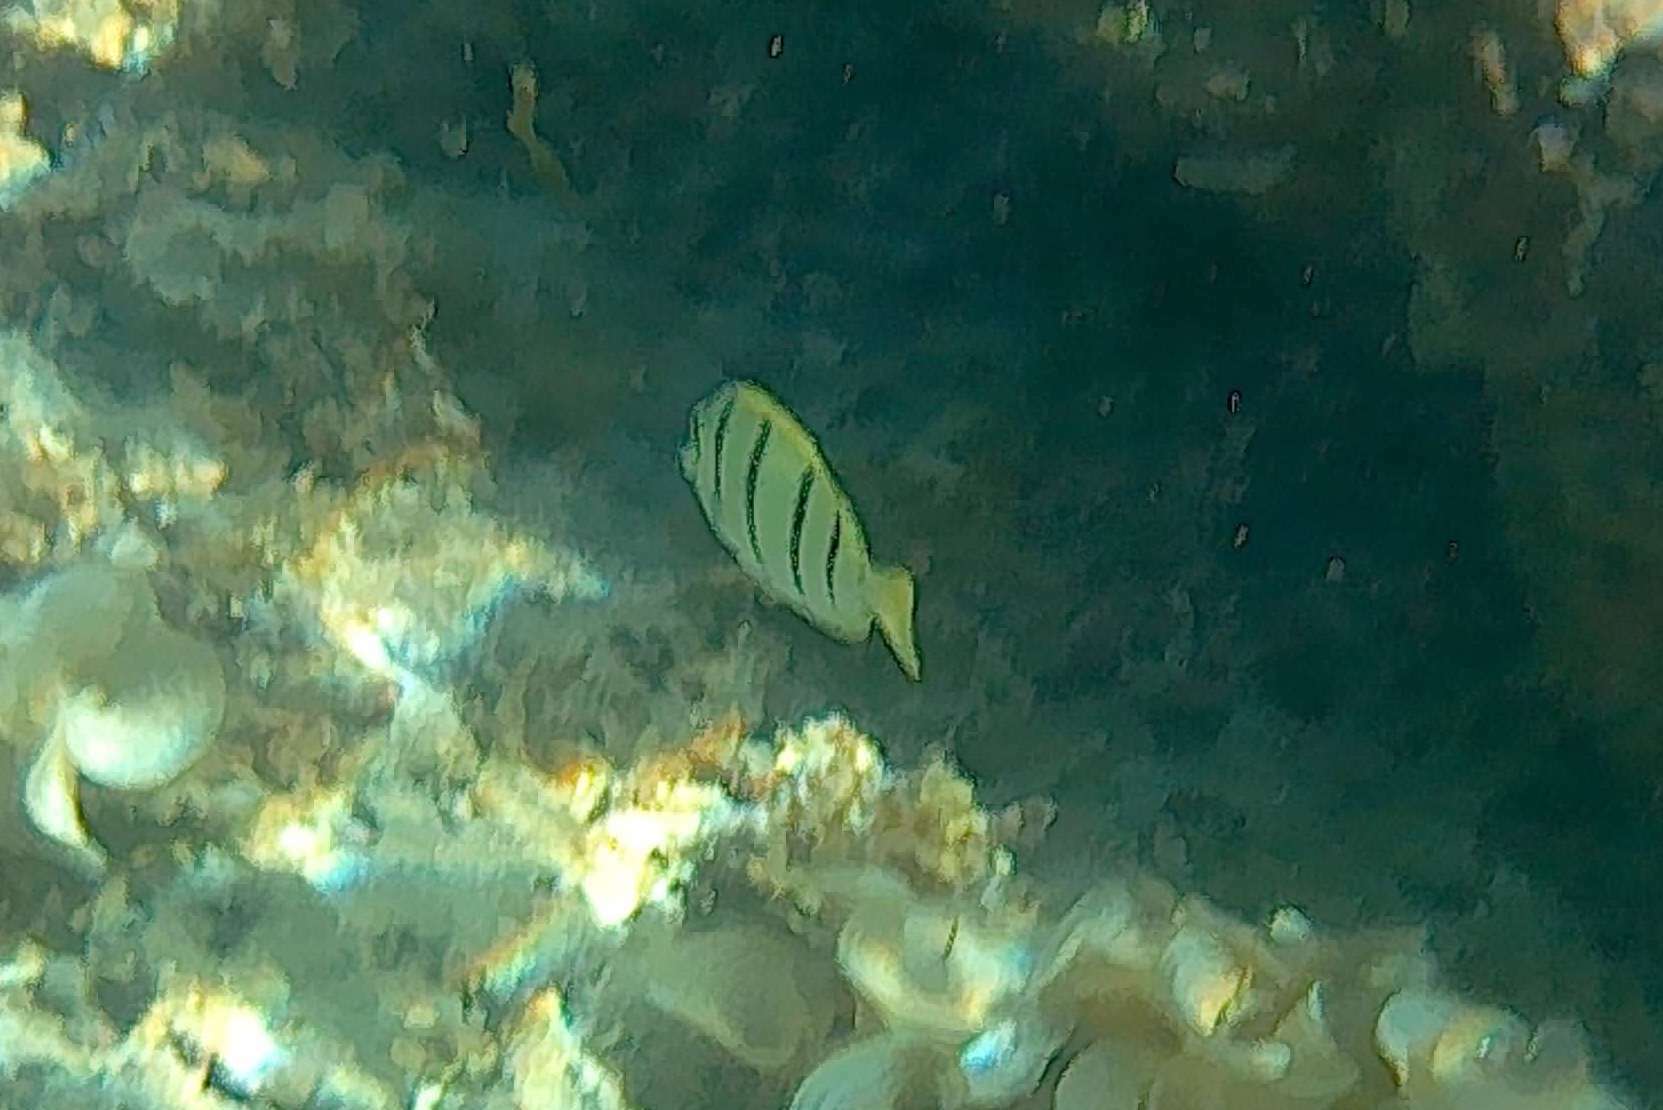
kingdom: Animalia
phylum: Chordata
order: Perciformes
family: Acanthuridae
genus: Acanthurus
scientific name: Acanthurus triostegus
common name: Convict surgeonfish
